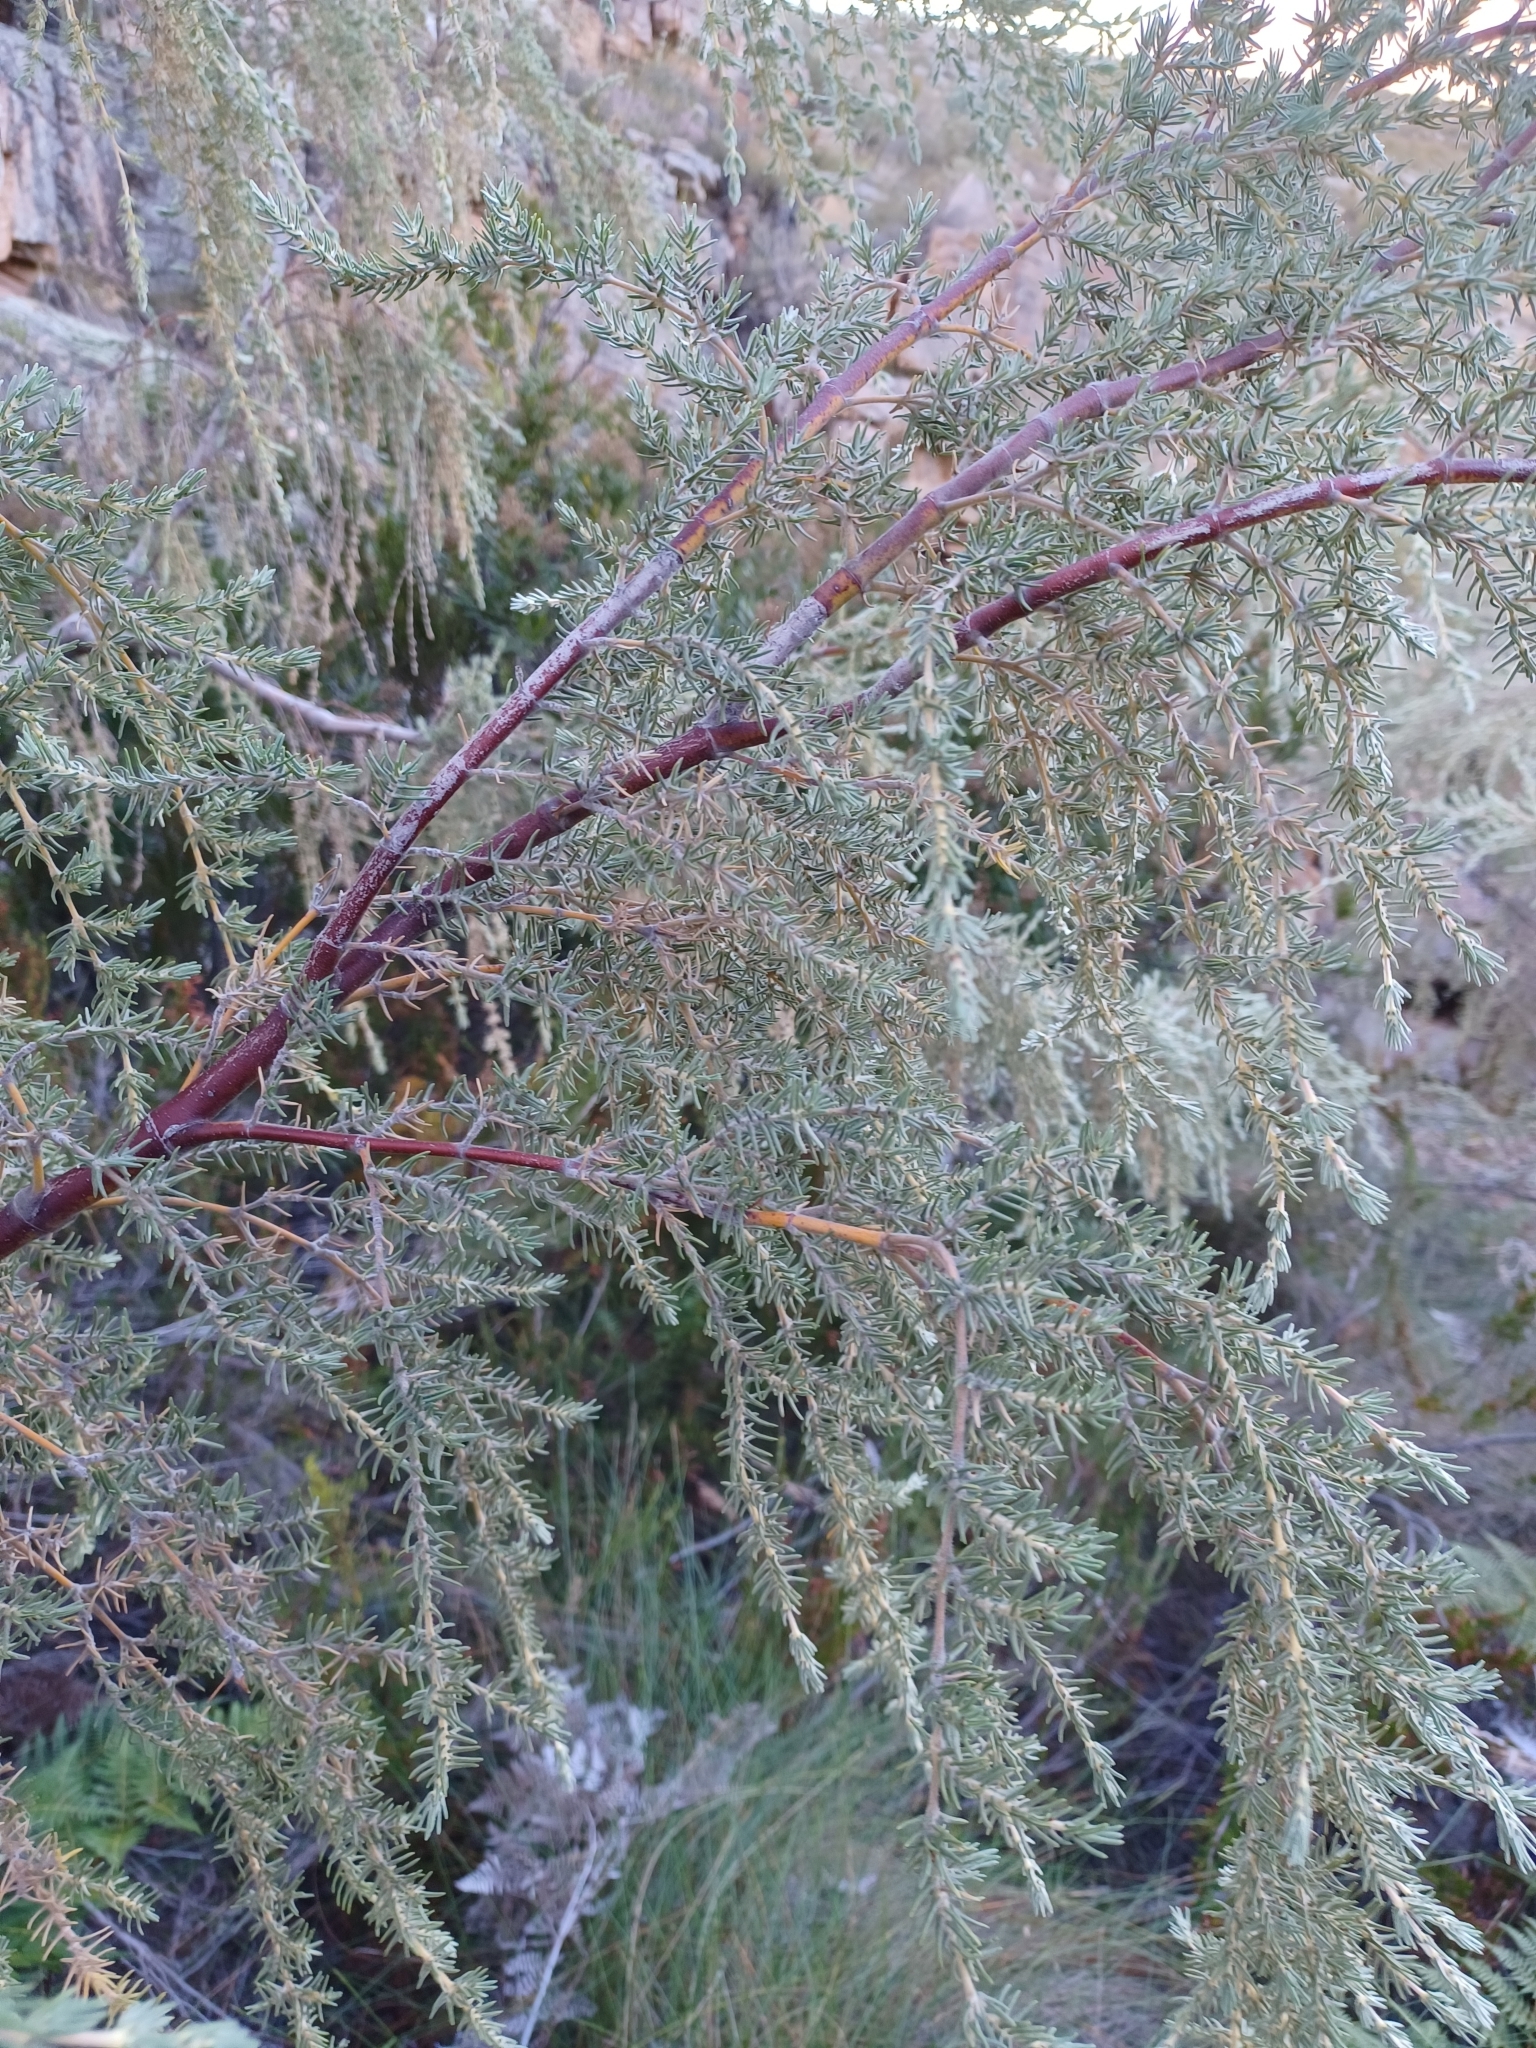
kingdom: Plantae
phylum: Tracheophyta
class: Magnoliopsida
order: Cornales
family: Grubbiaceae
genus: Grubbia
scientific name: Grubbia rosmarinifolia
